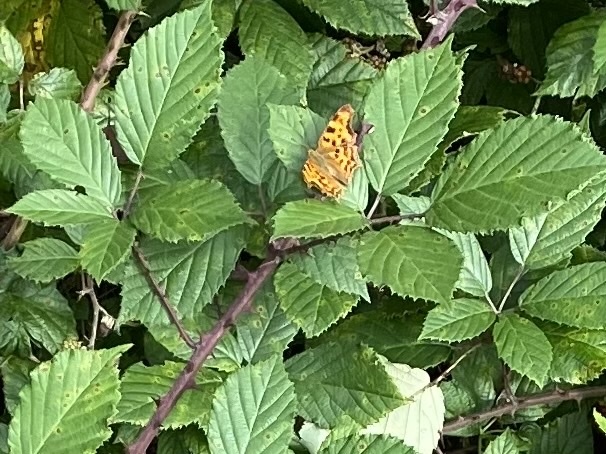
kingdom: Animalia
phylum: Arthropoda
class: Insecta
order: Lepidoptera
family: Nymphalidae
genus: Polygonia
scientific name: Polygonia c-album
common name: Comma
